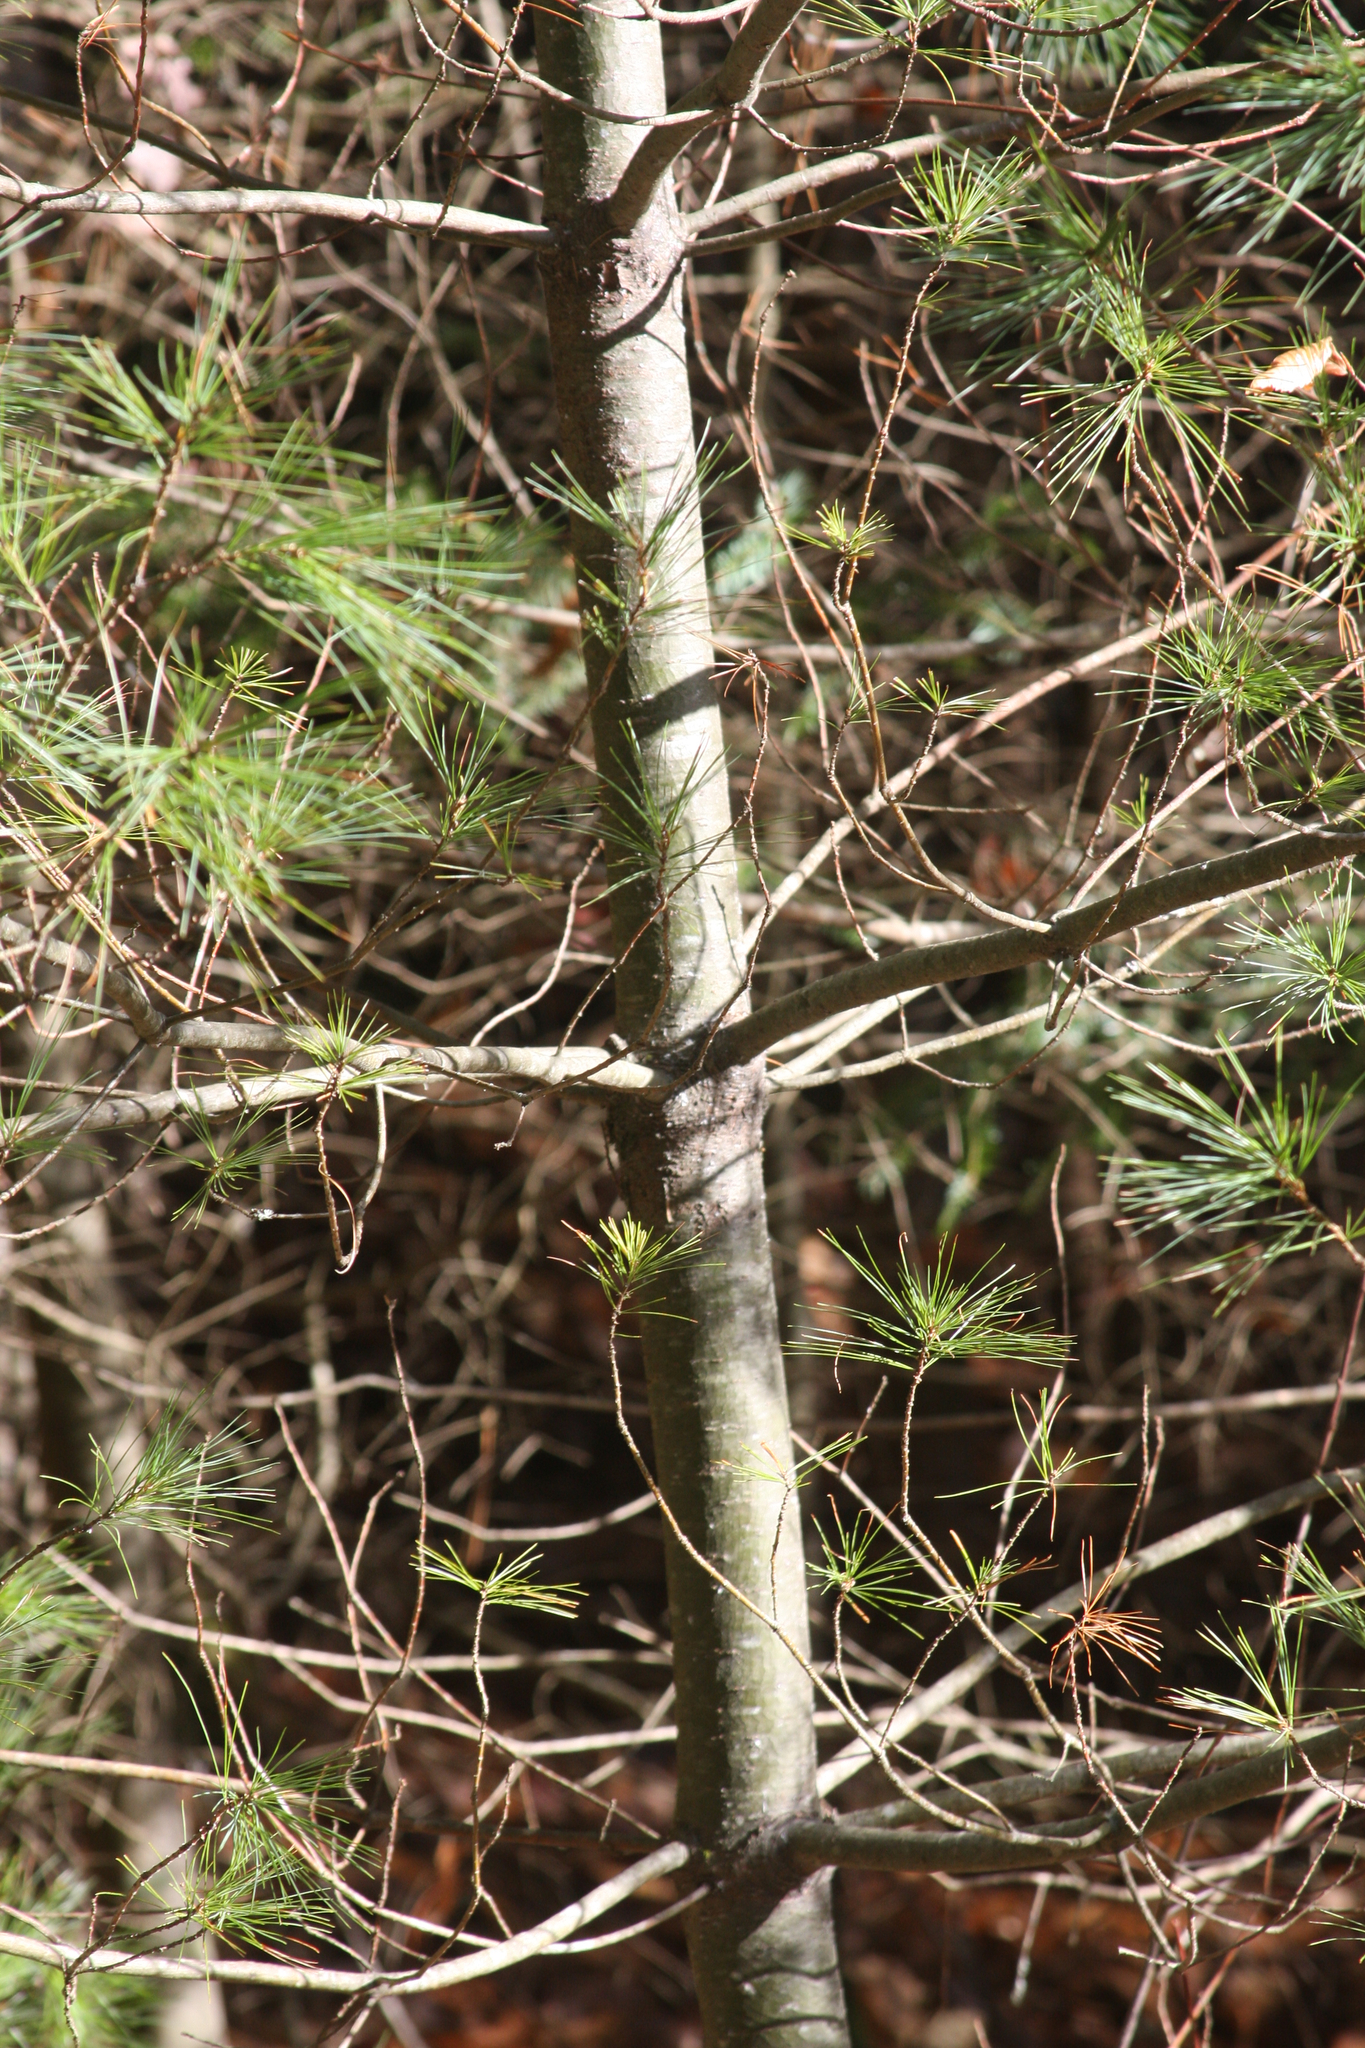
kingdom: Plantae
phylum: Tracheophyta
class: Pinopsida
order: Pinales
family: Pinaceae
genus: Pinus
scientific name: Pinus strobus
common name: Weymouth pine
